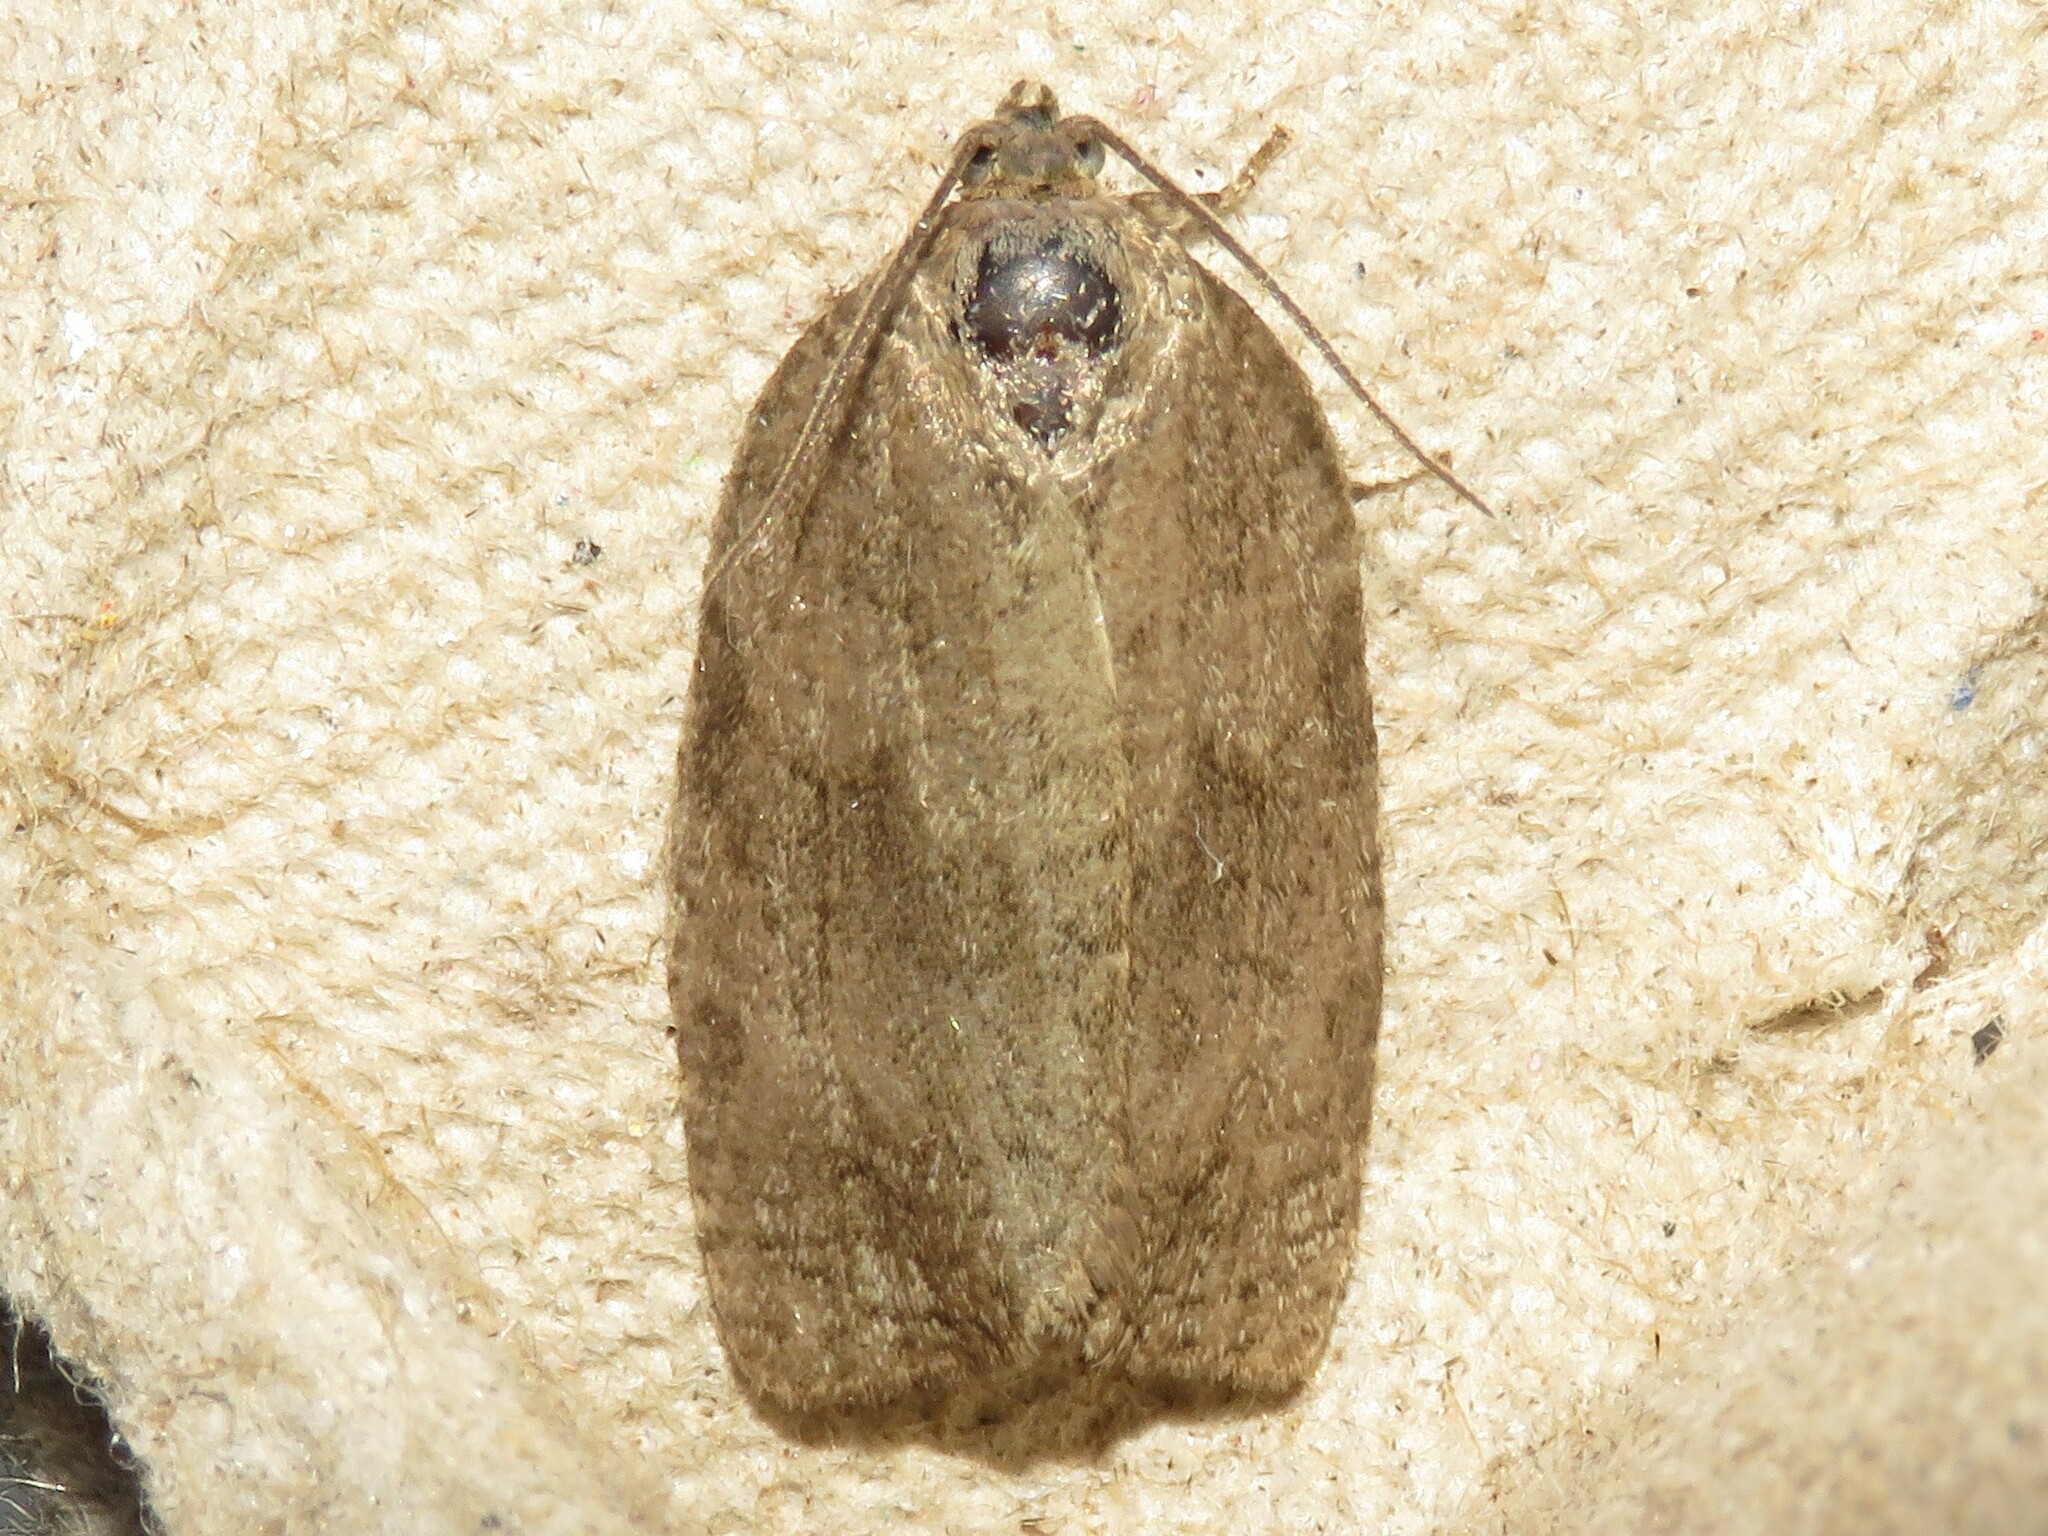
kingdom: Animalia
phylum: Arthropoda
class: Insecta
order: Lepidoptera
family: Tortricidae
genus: Choristoneura
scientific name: Choristoneura conflictana
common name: Large aspen tortrix
